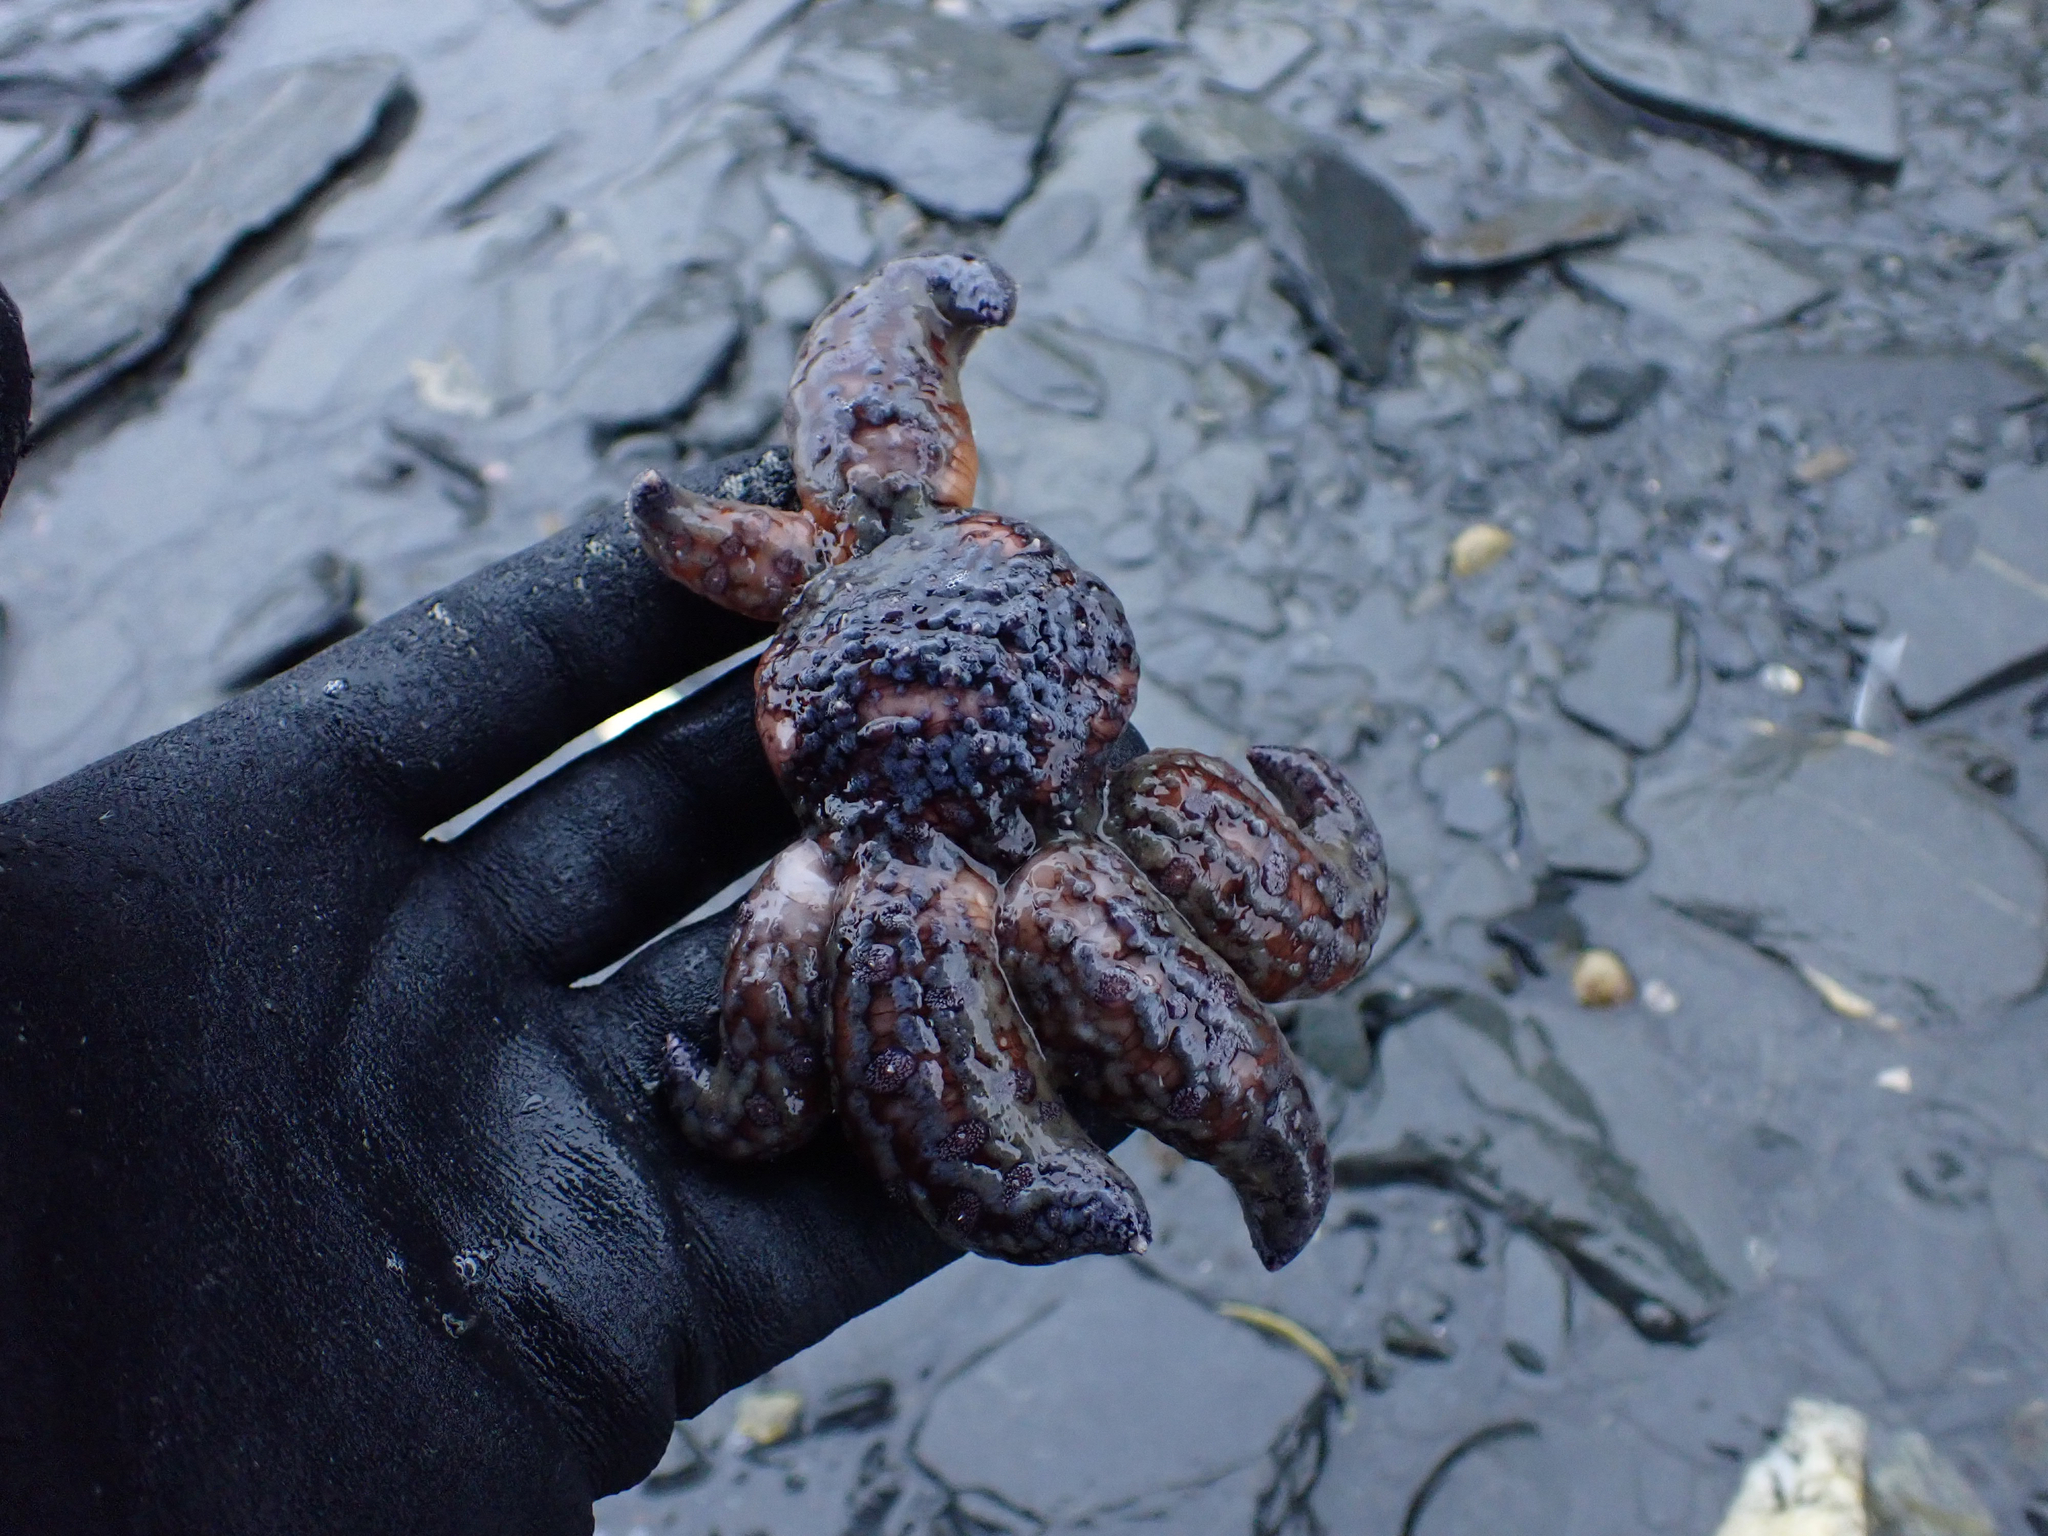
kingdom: Animalia
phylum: Echinodermata
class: Asteroidea
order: Forcipulatida
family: Asteriidae
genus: Pycnopodia
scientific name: Pycnopodia helianthoides
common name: Rag mop
